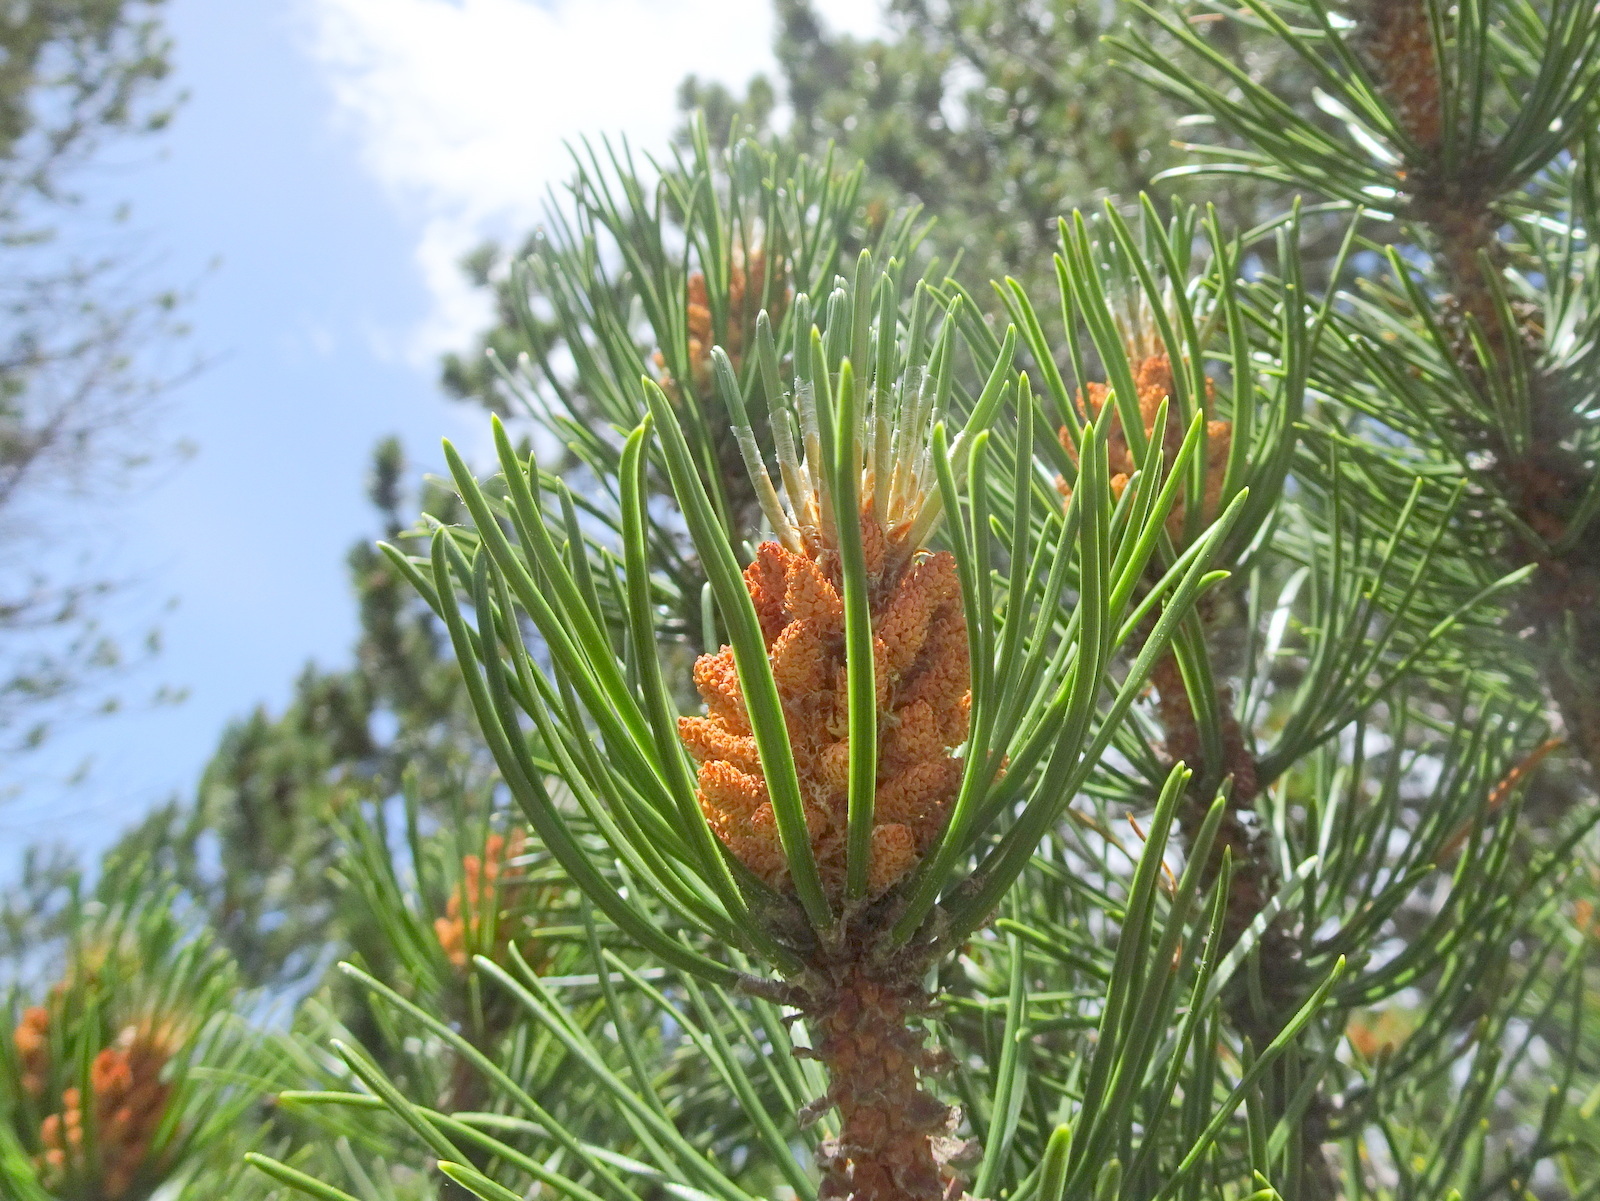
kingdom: Plantae
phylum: Tracheophyta
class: Pinopsida
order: Pinales
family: Pinaceae
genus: Pinus
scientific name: Pinus uncinata
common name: Mountain pine
